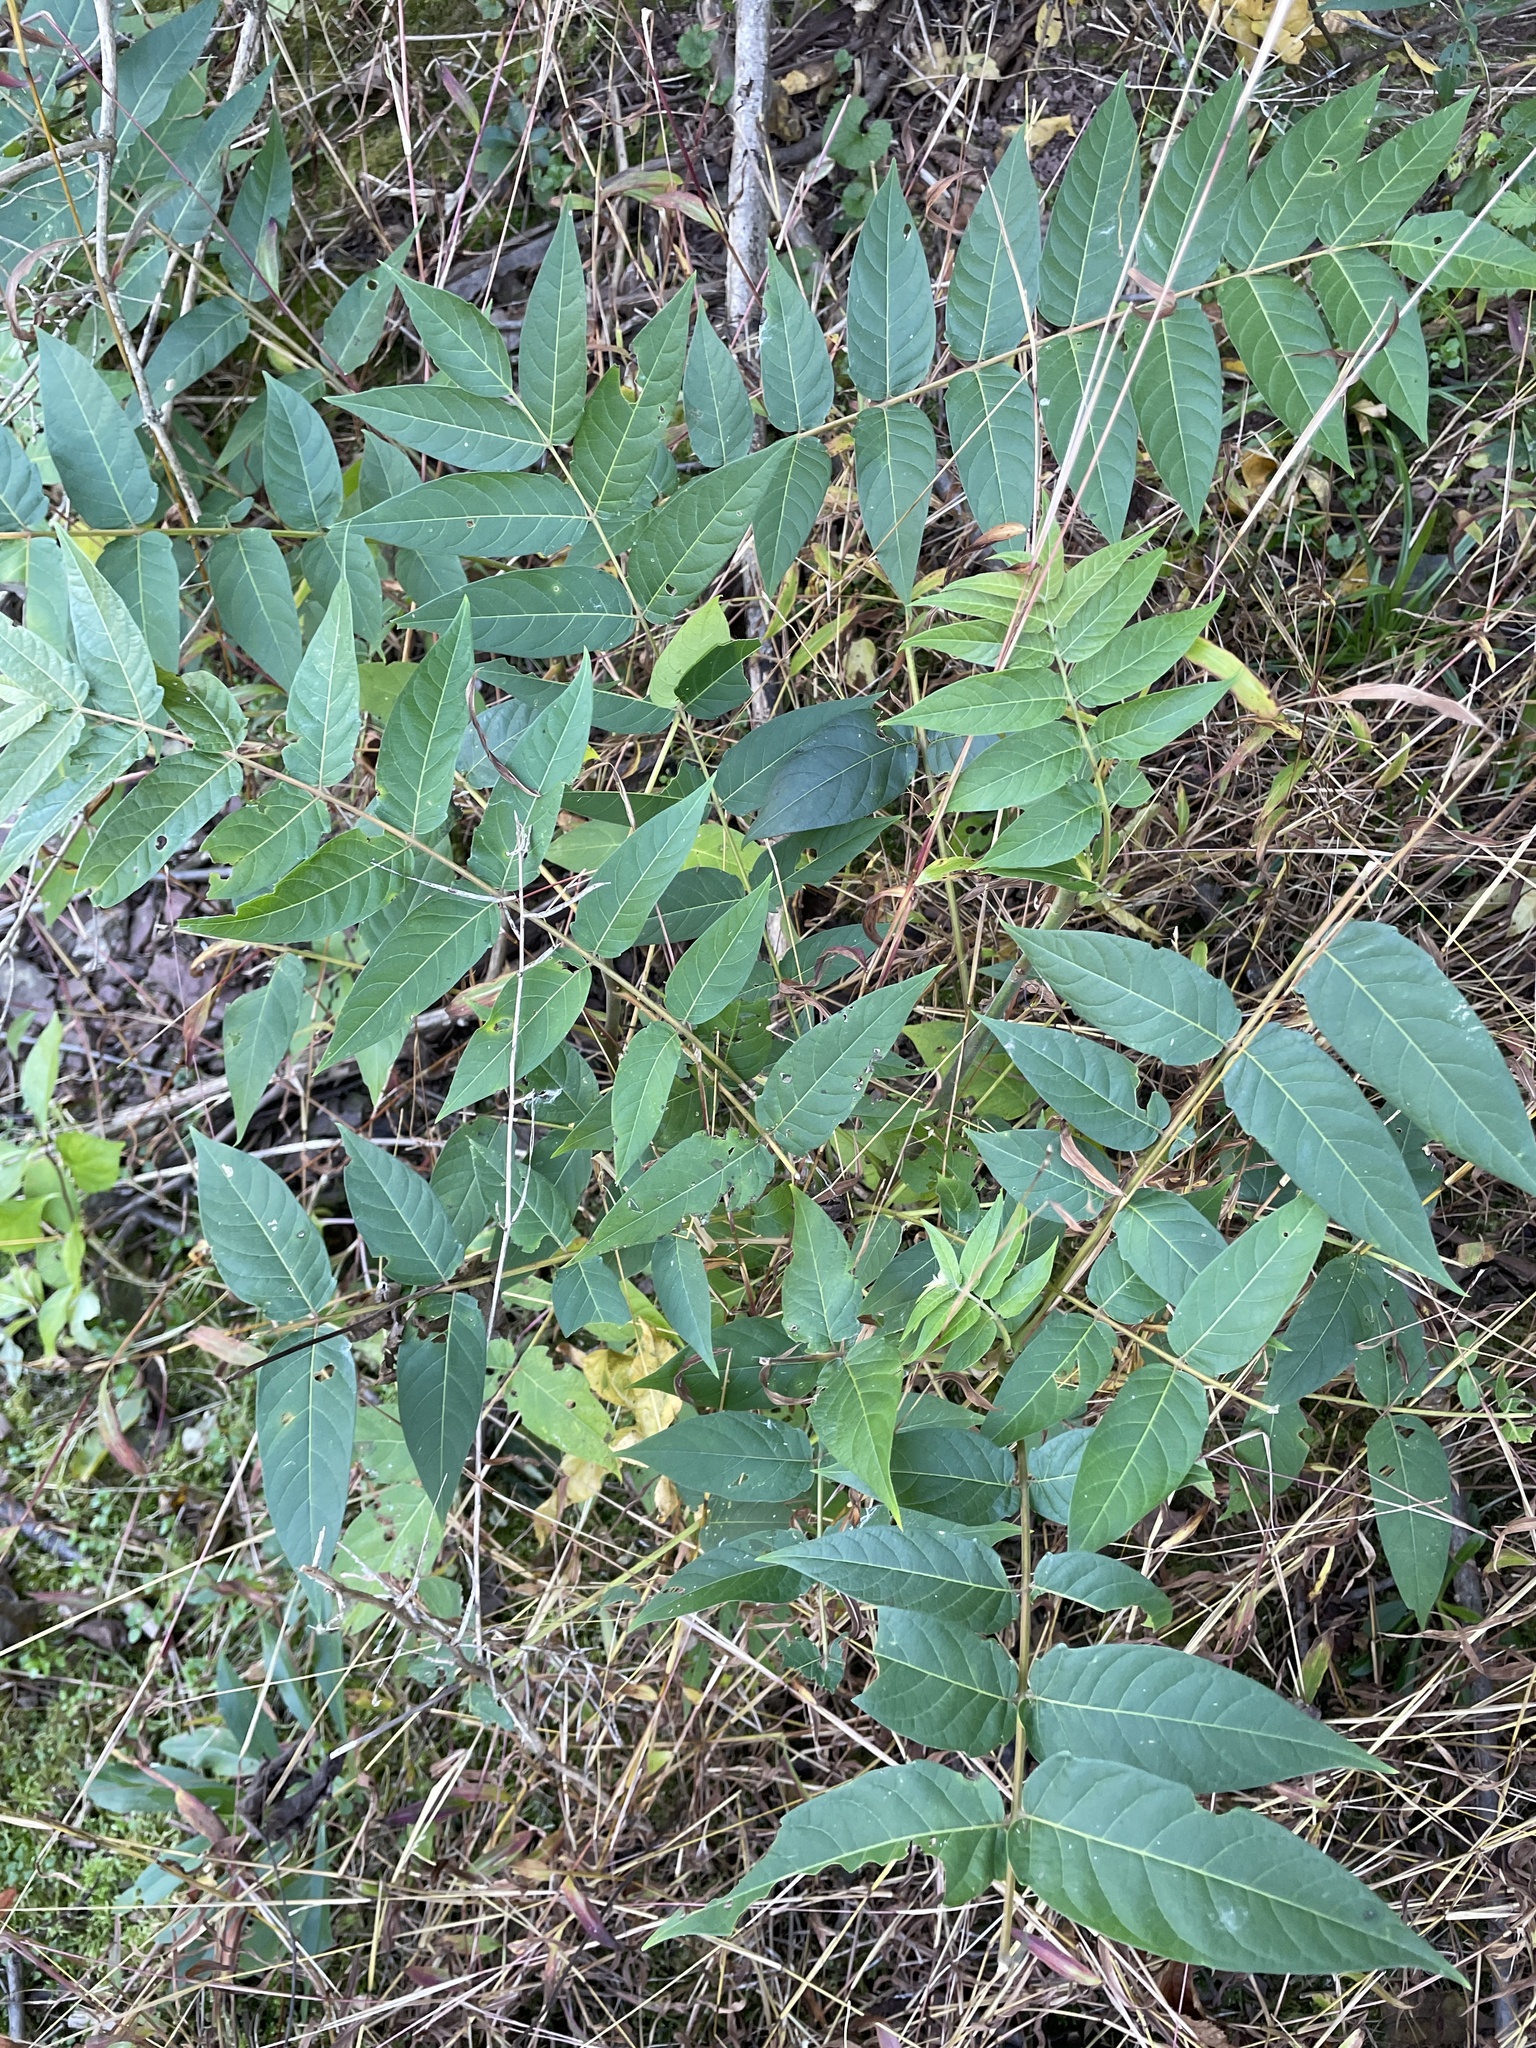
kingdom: Plantae
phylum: Tracheophyta
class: Magnoliopsida
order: Sapindales
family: Simaroubaceae
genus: Ailanthus
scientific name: Ailanthus altissima
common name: Tree-of-heaven
